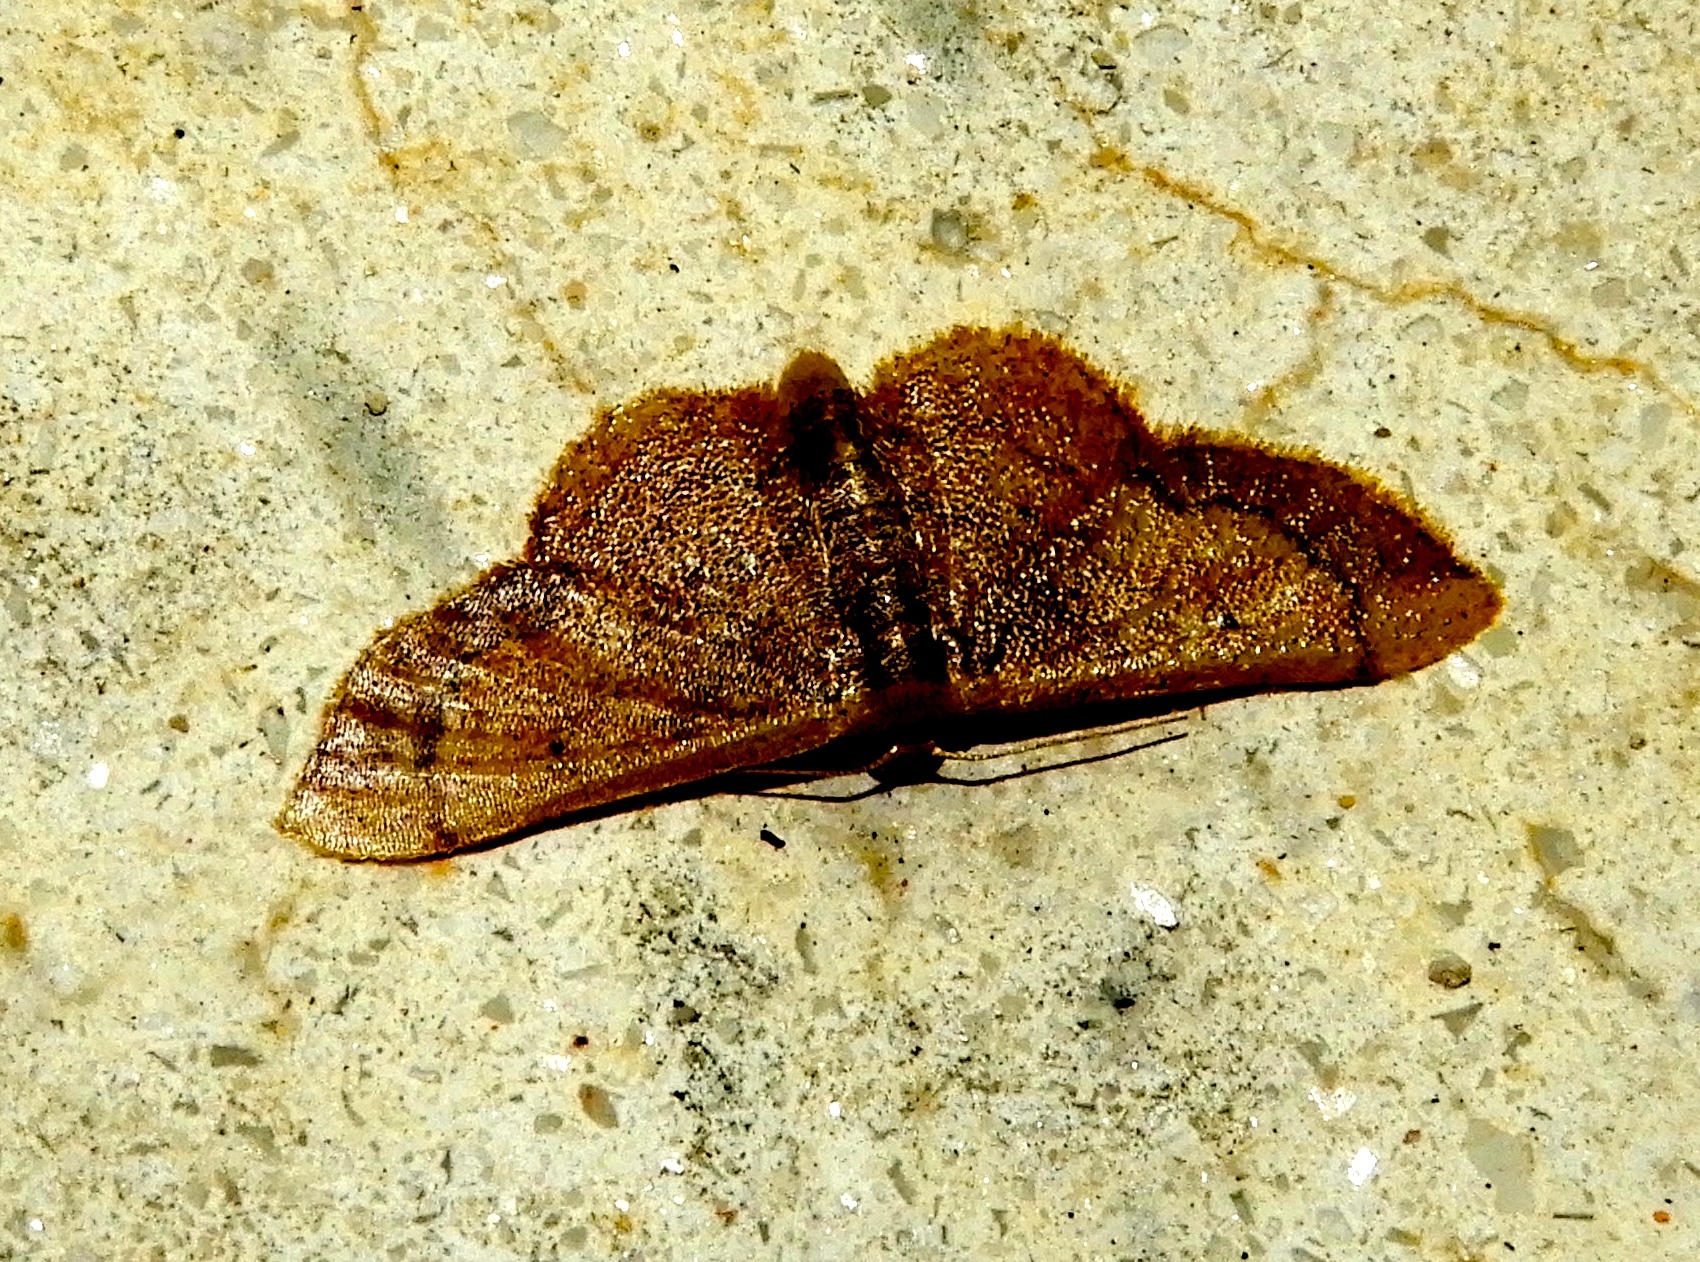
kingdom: Animalia
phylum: Arthropoda
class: Insecta
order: Lepidoptera
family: Geometridae
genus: Idaea
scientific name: Idaea
